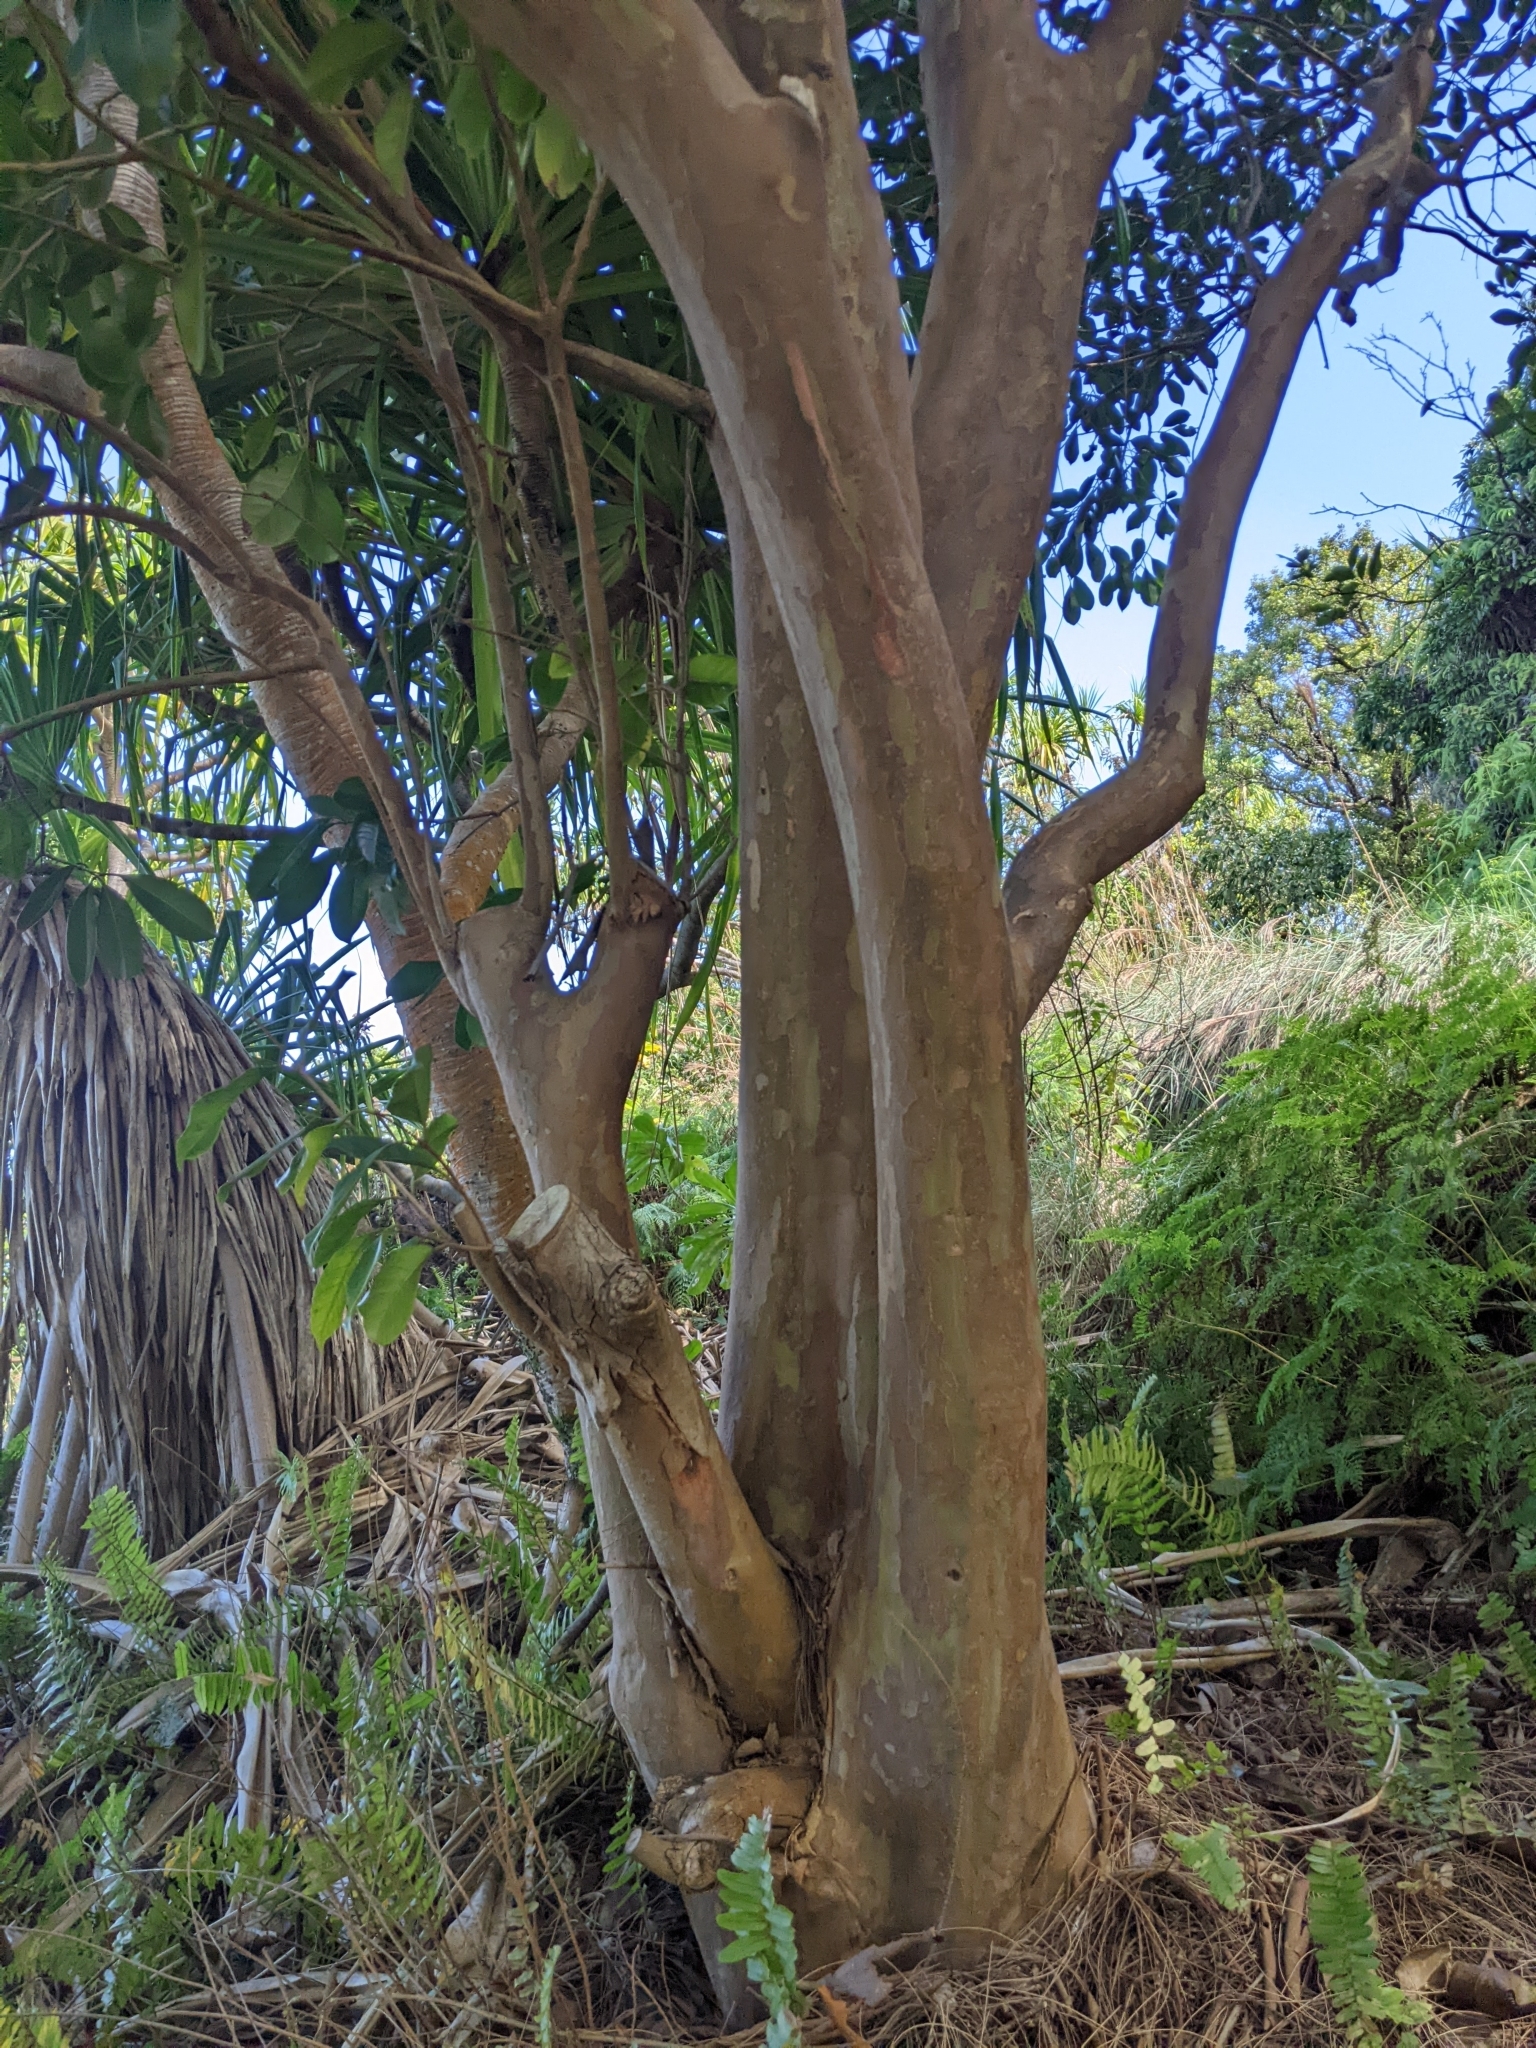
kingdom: Plantae
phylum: Tracheophyta
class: Magnoliopsida
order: Myrtales
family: Myrtaceae
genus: Psidium
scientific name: Psidium cattleianum
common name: Strawberry guava
